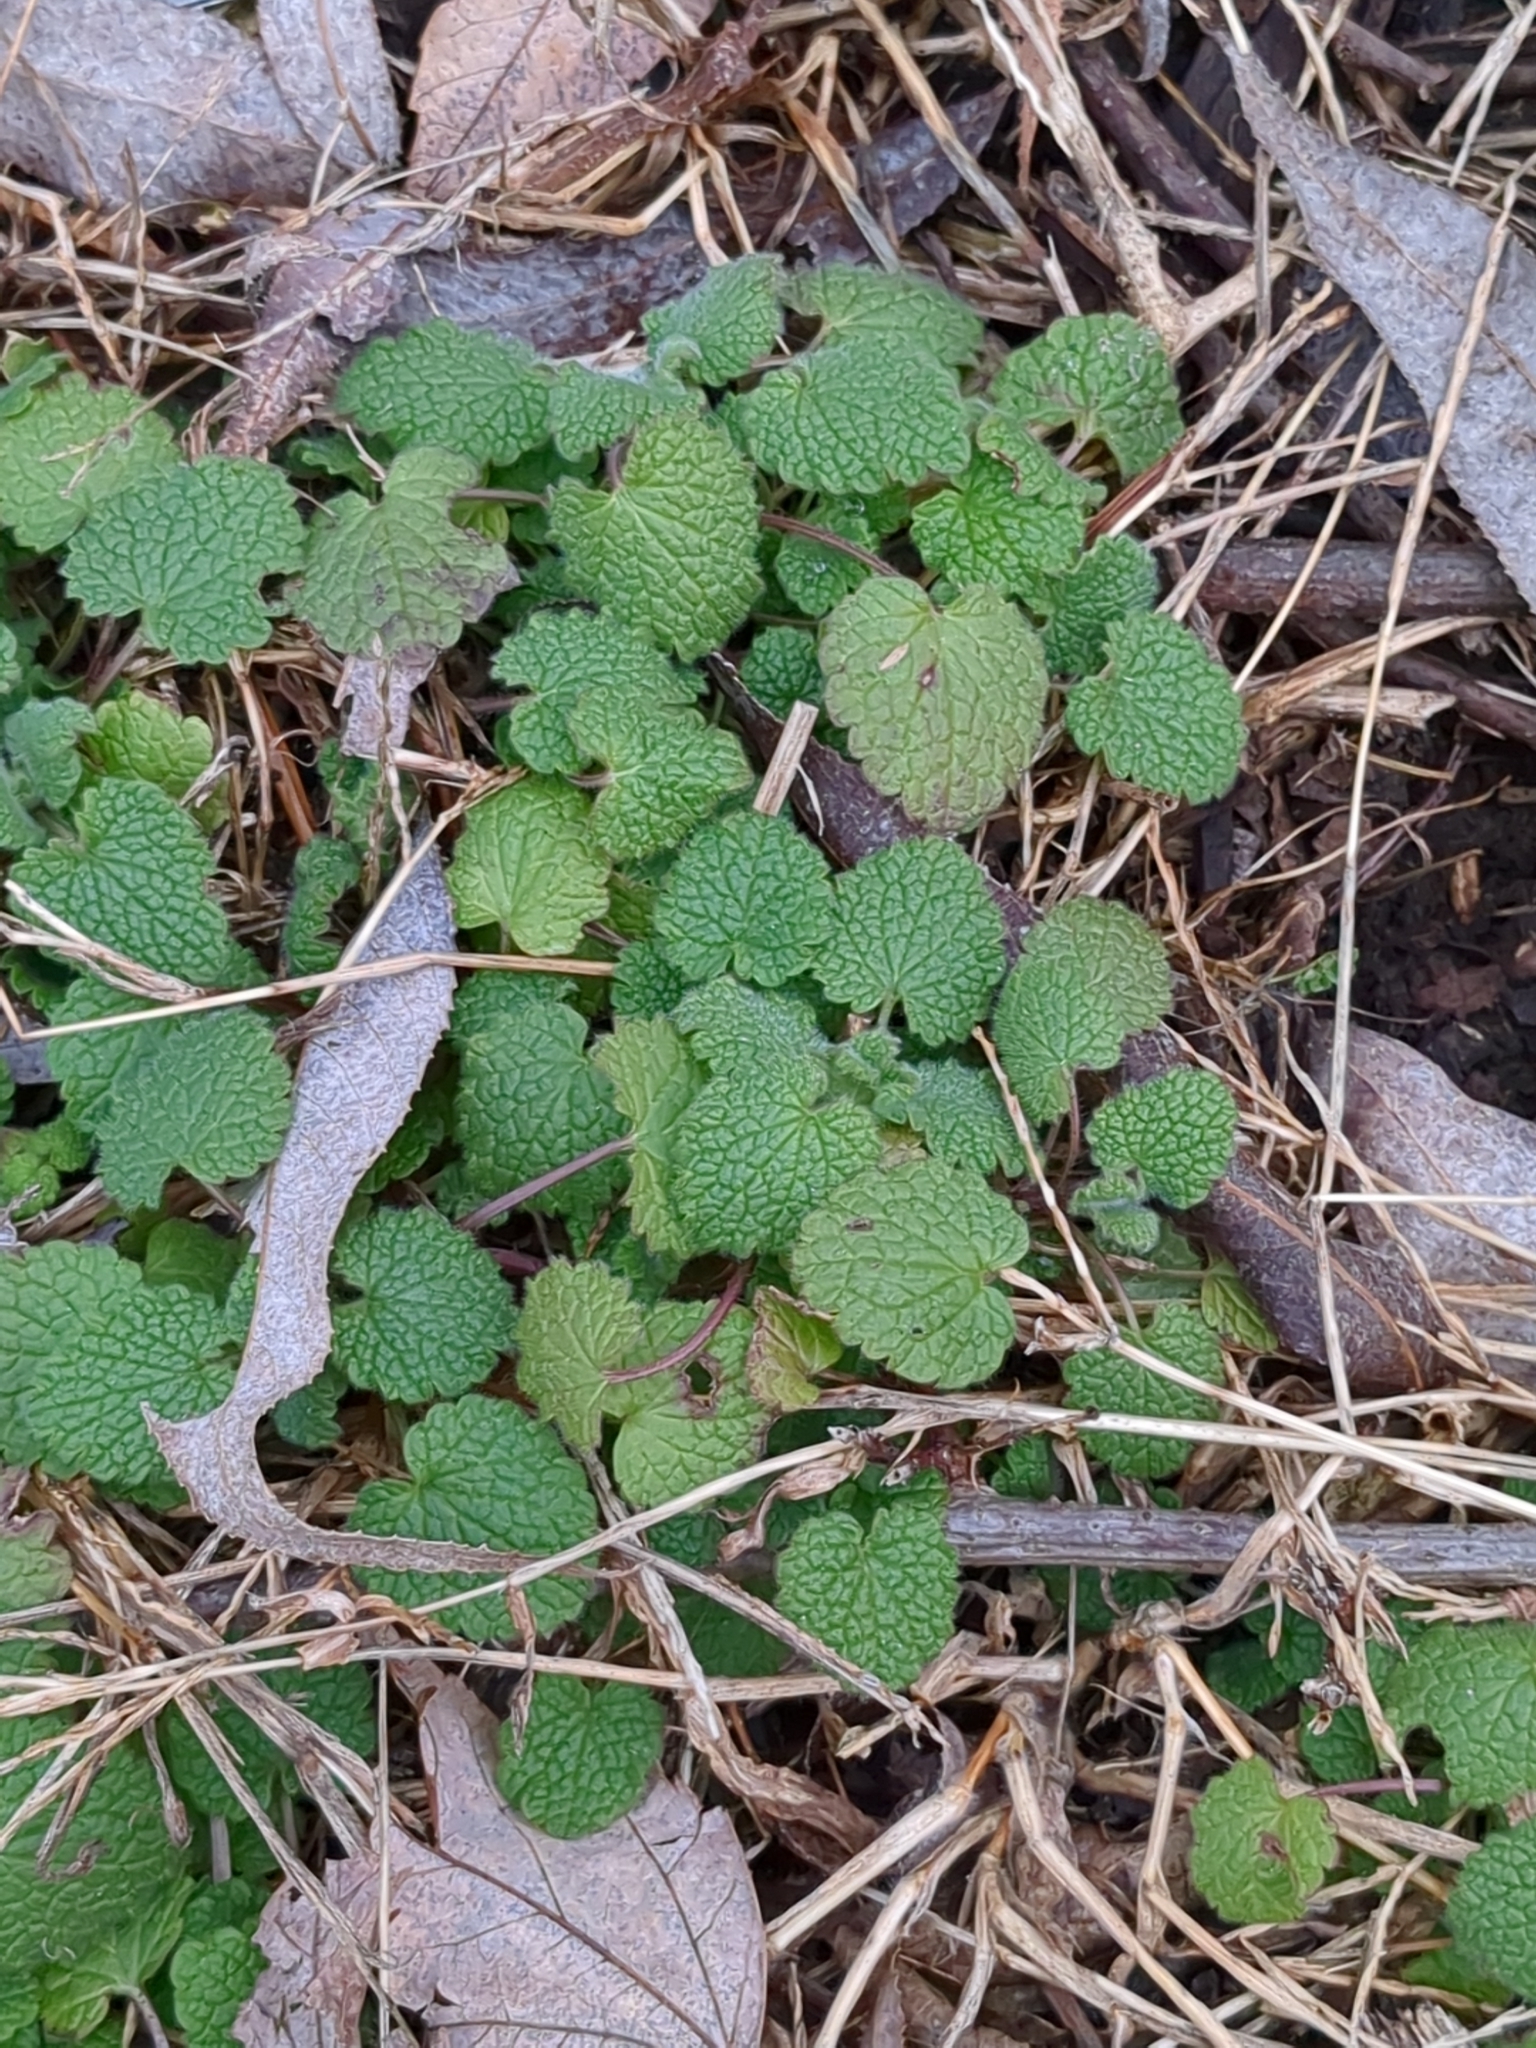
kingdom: Plantae
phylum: Tracheophyta
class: Magnoliopsida
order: Lamiales
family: Lamiaceae
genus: Lamium
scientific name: Lamium purpureum
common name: Red dead-nettle
